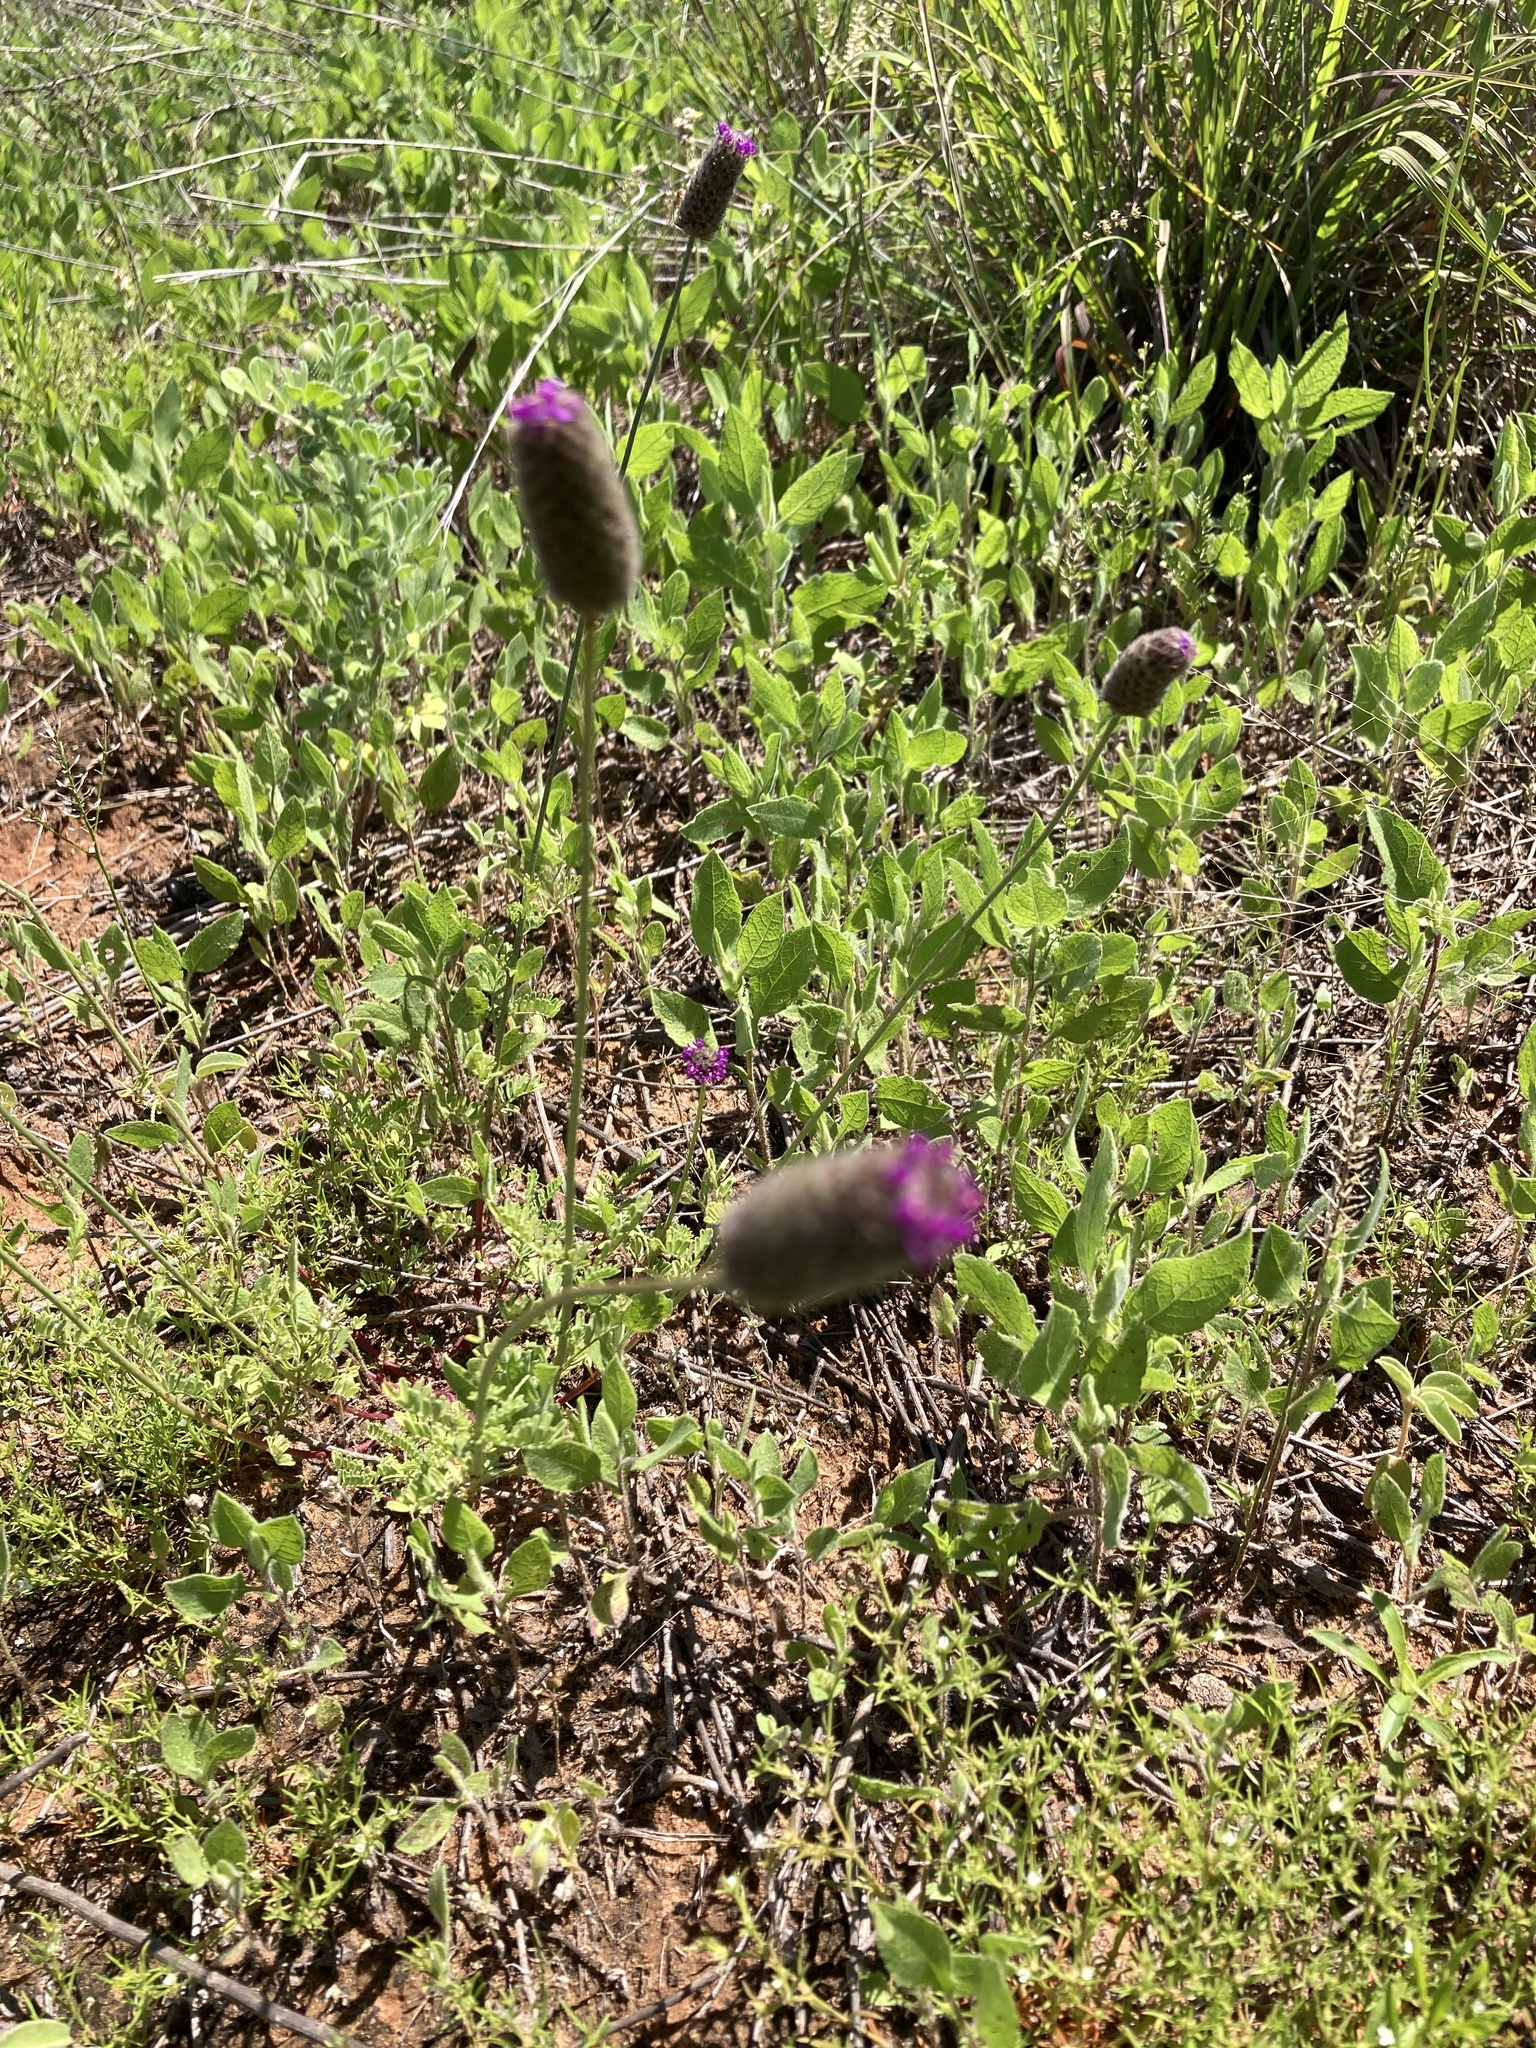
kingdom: Plantae
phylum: Tracheophyta
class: Magnoliopsida
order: Fabales
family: Fabaceae
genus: Dalea
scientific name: Dalea emarginata
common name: Wedgeleaf prairie clover
